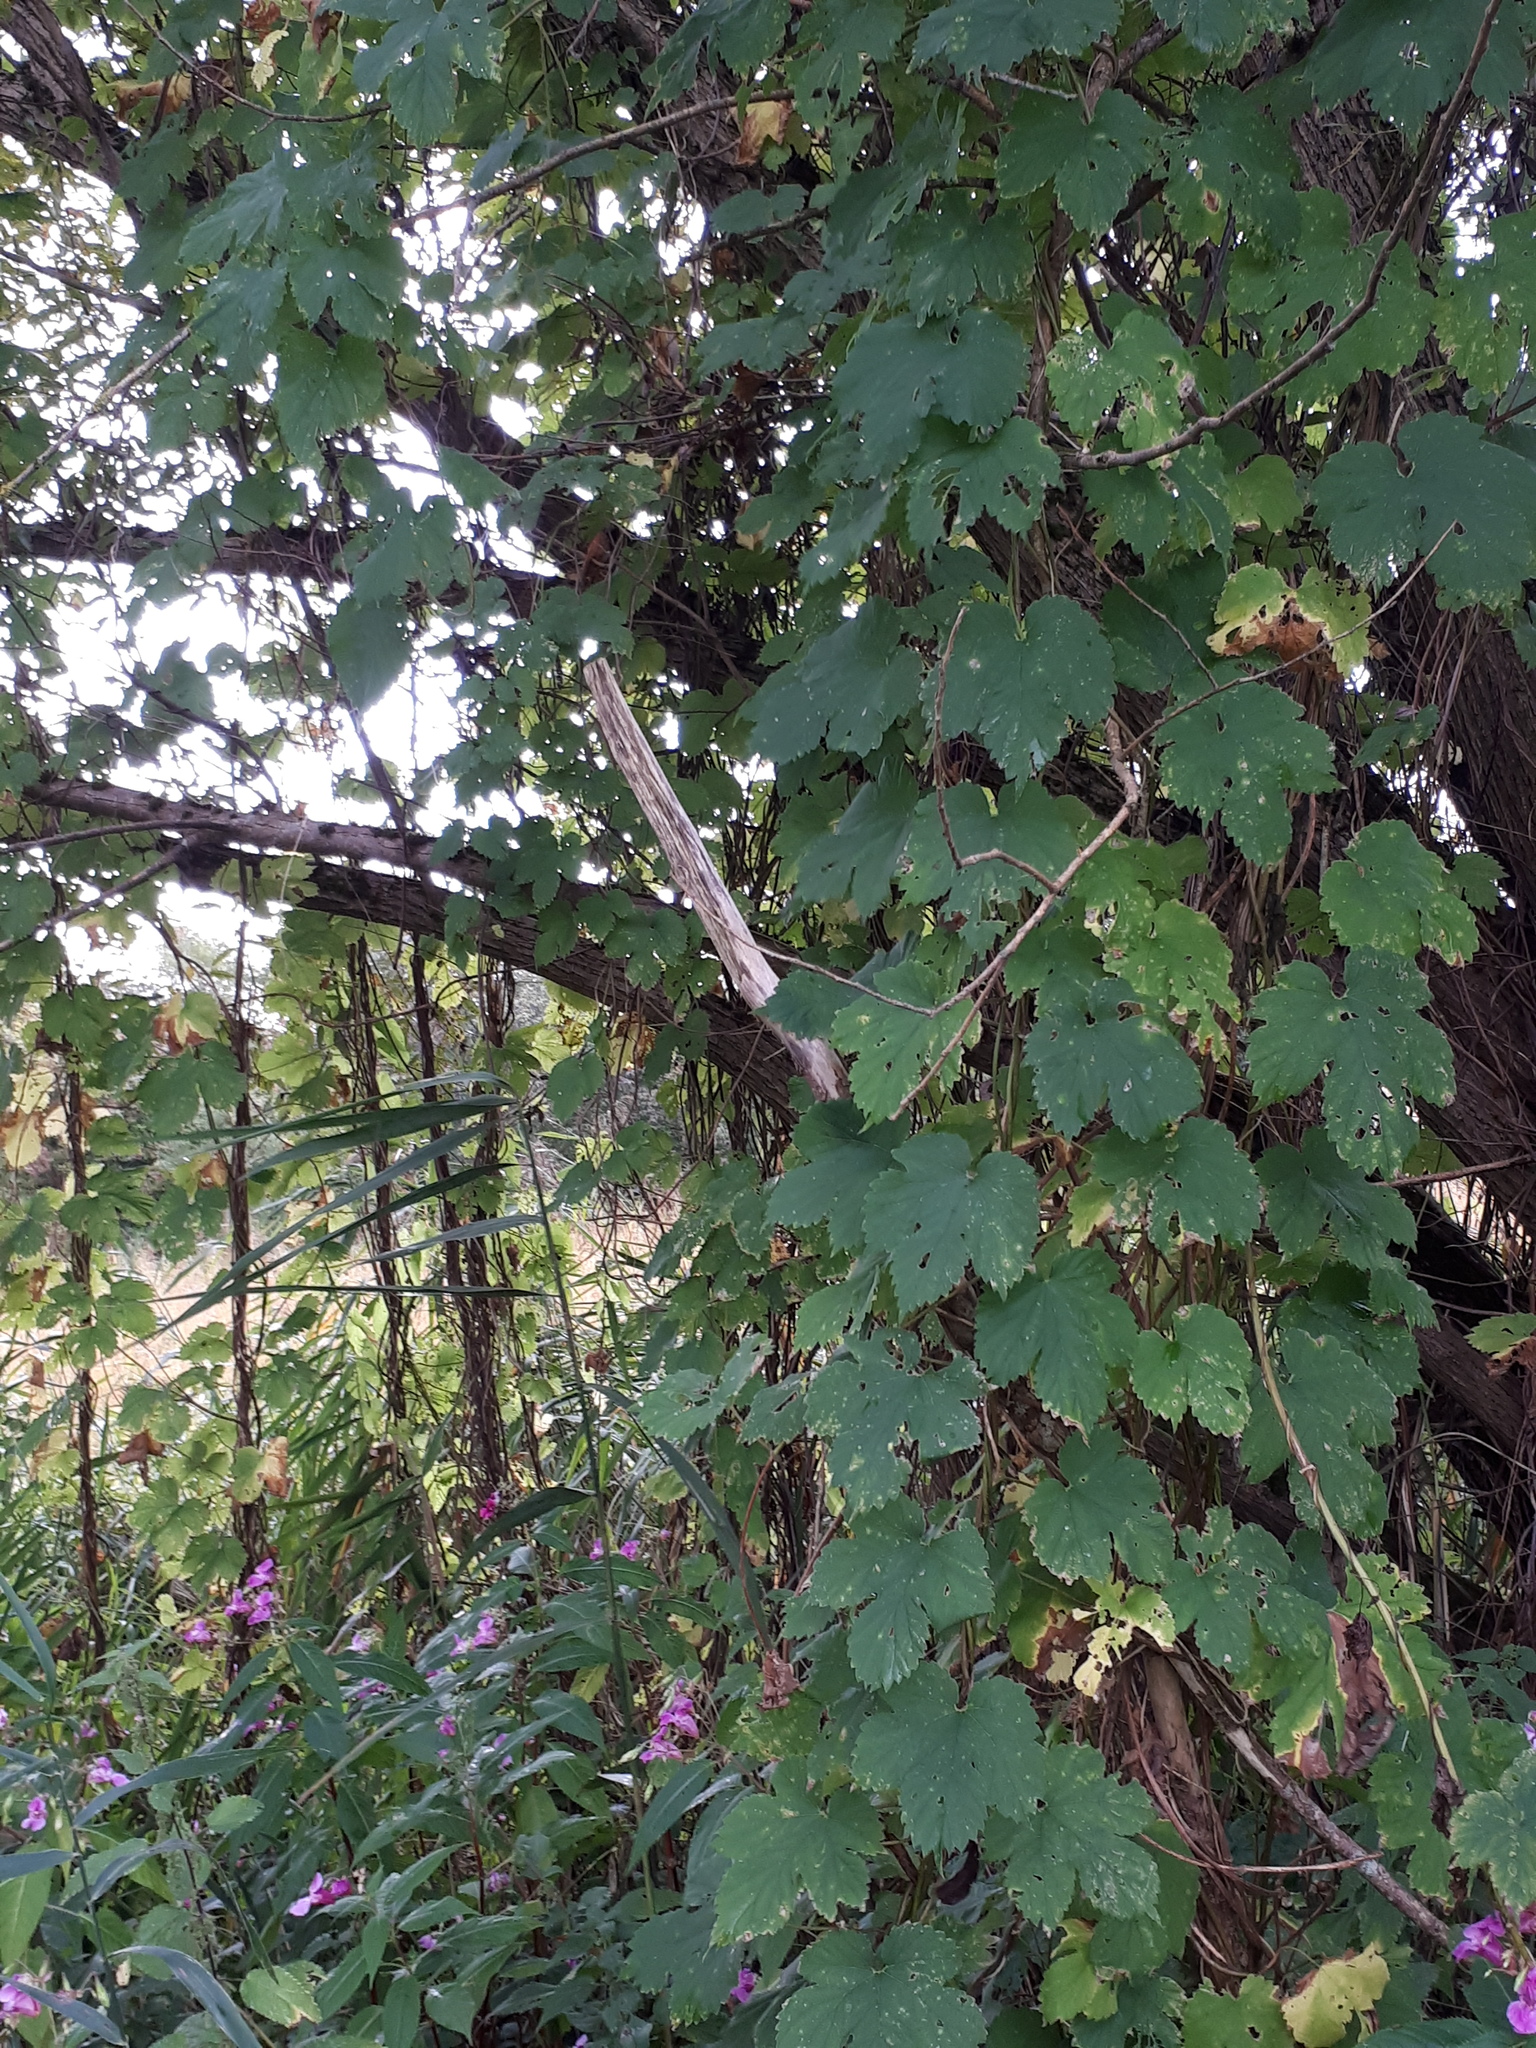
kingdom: Plantae
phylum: Tracheophyta
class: Magnoliopsida
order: Rosales
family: Cannabaceae
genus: Humulus
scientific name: Humulus lupulus
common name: Hop
